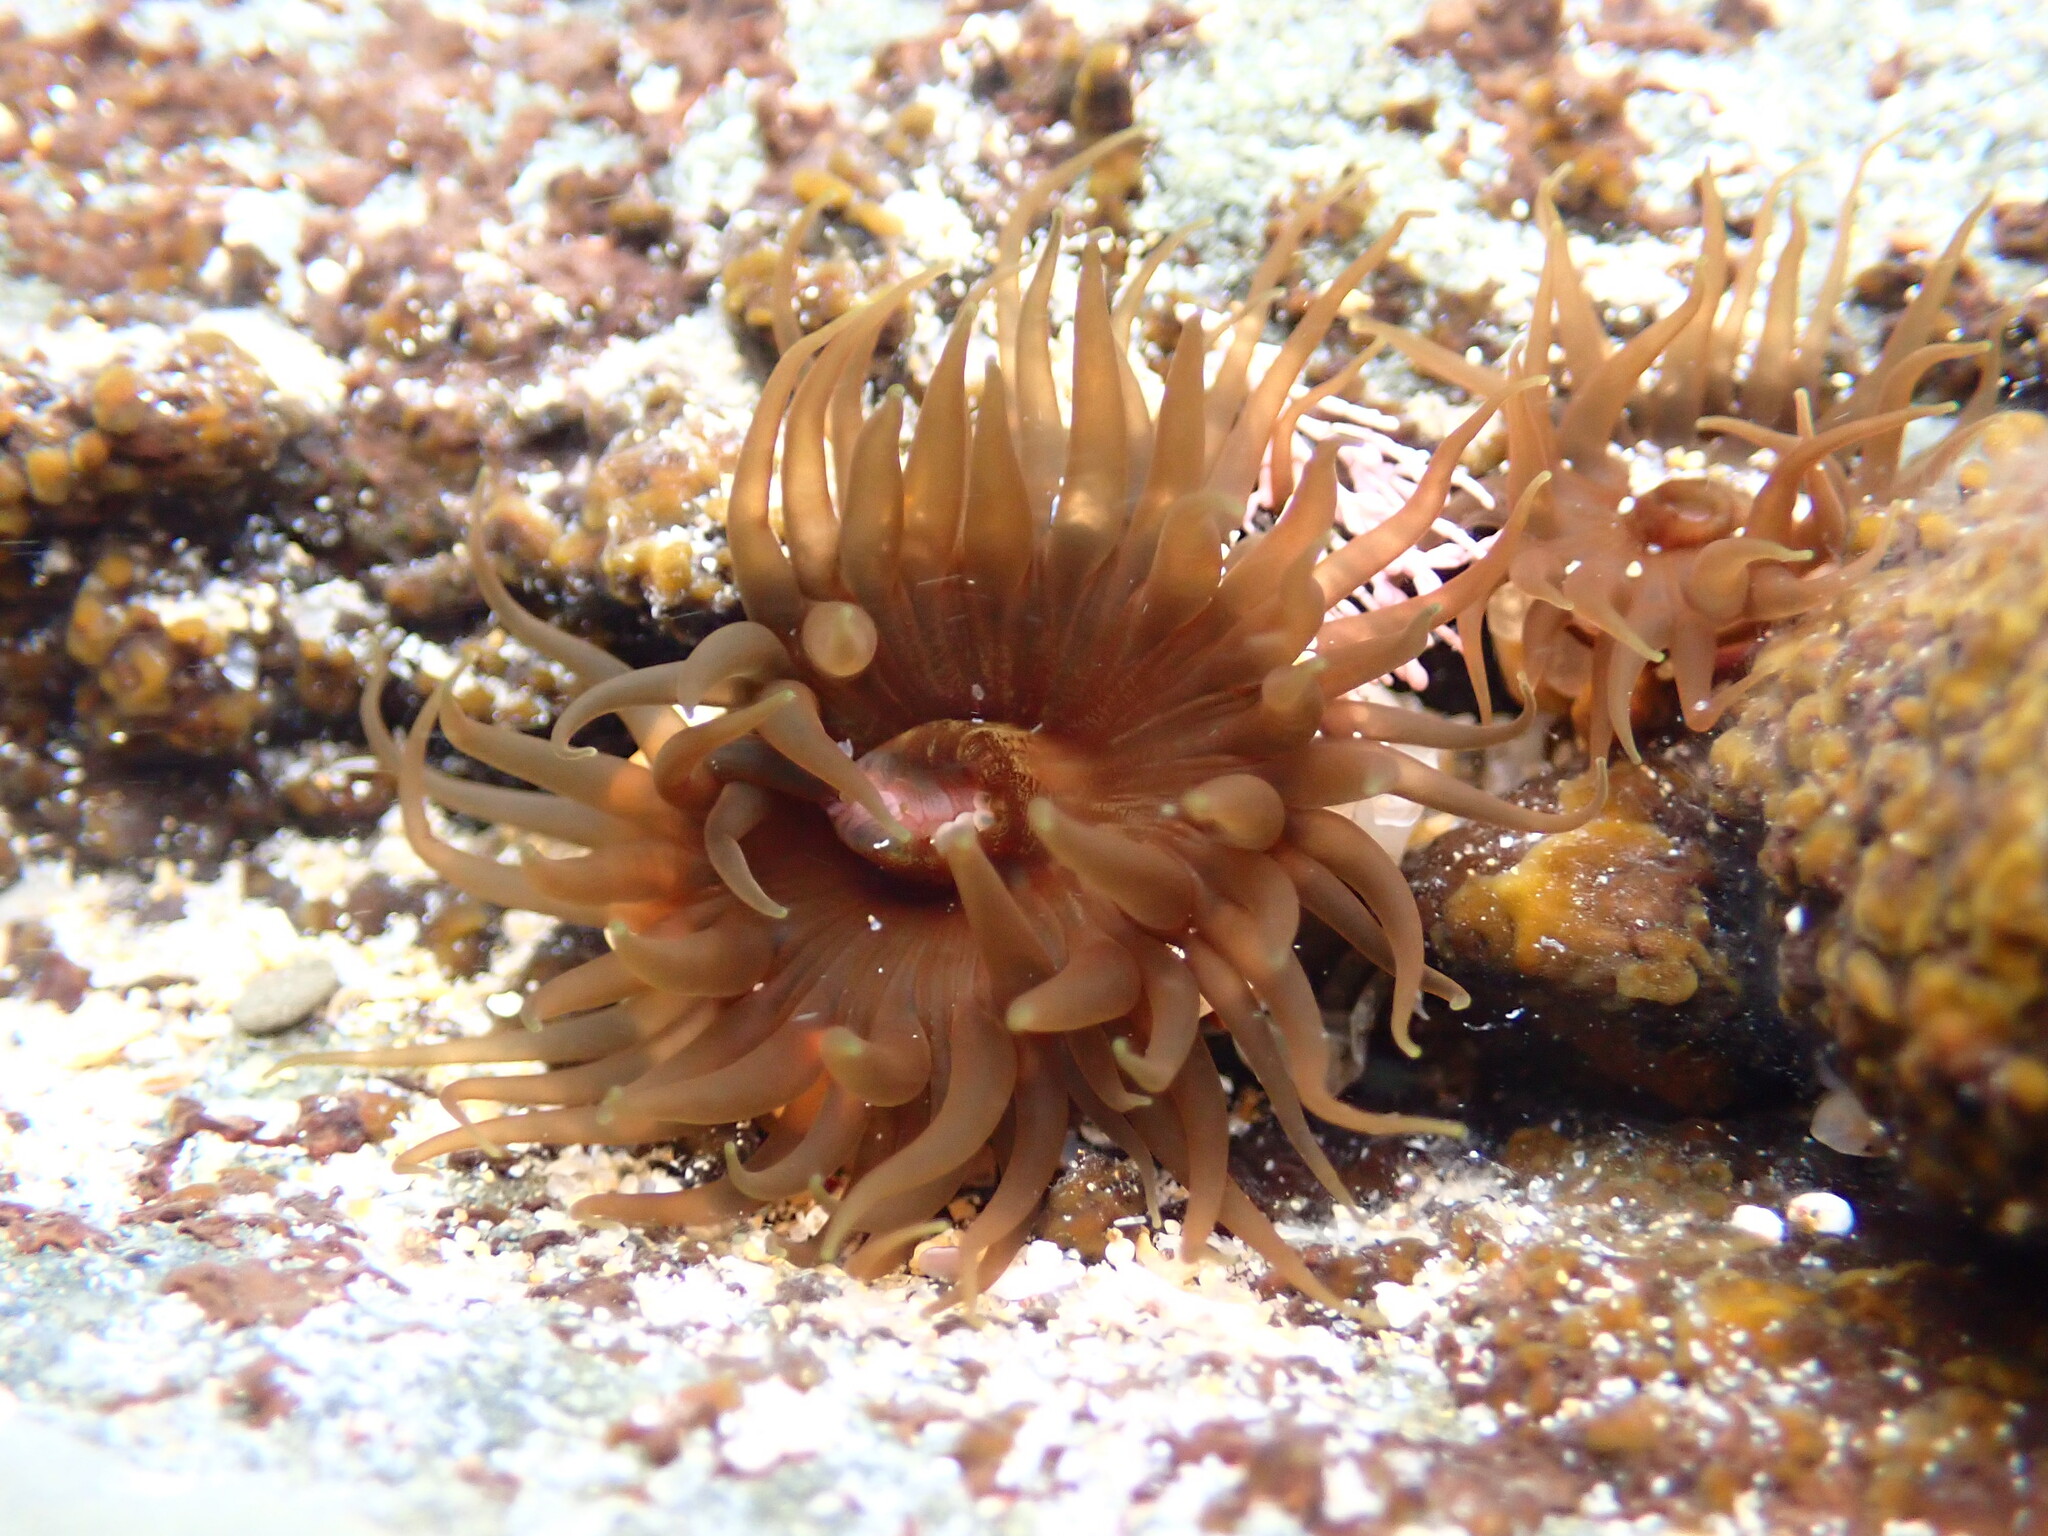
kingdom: Animalia
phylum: Cnidaria
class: Anthozoa
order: Actiniaria
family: Actiniidae
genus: Aulactinia
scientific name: Aulactinia veratra
